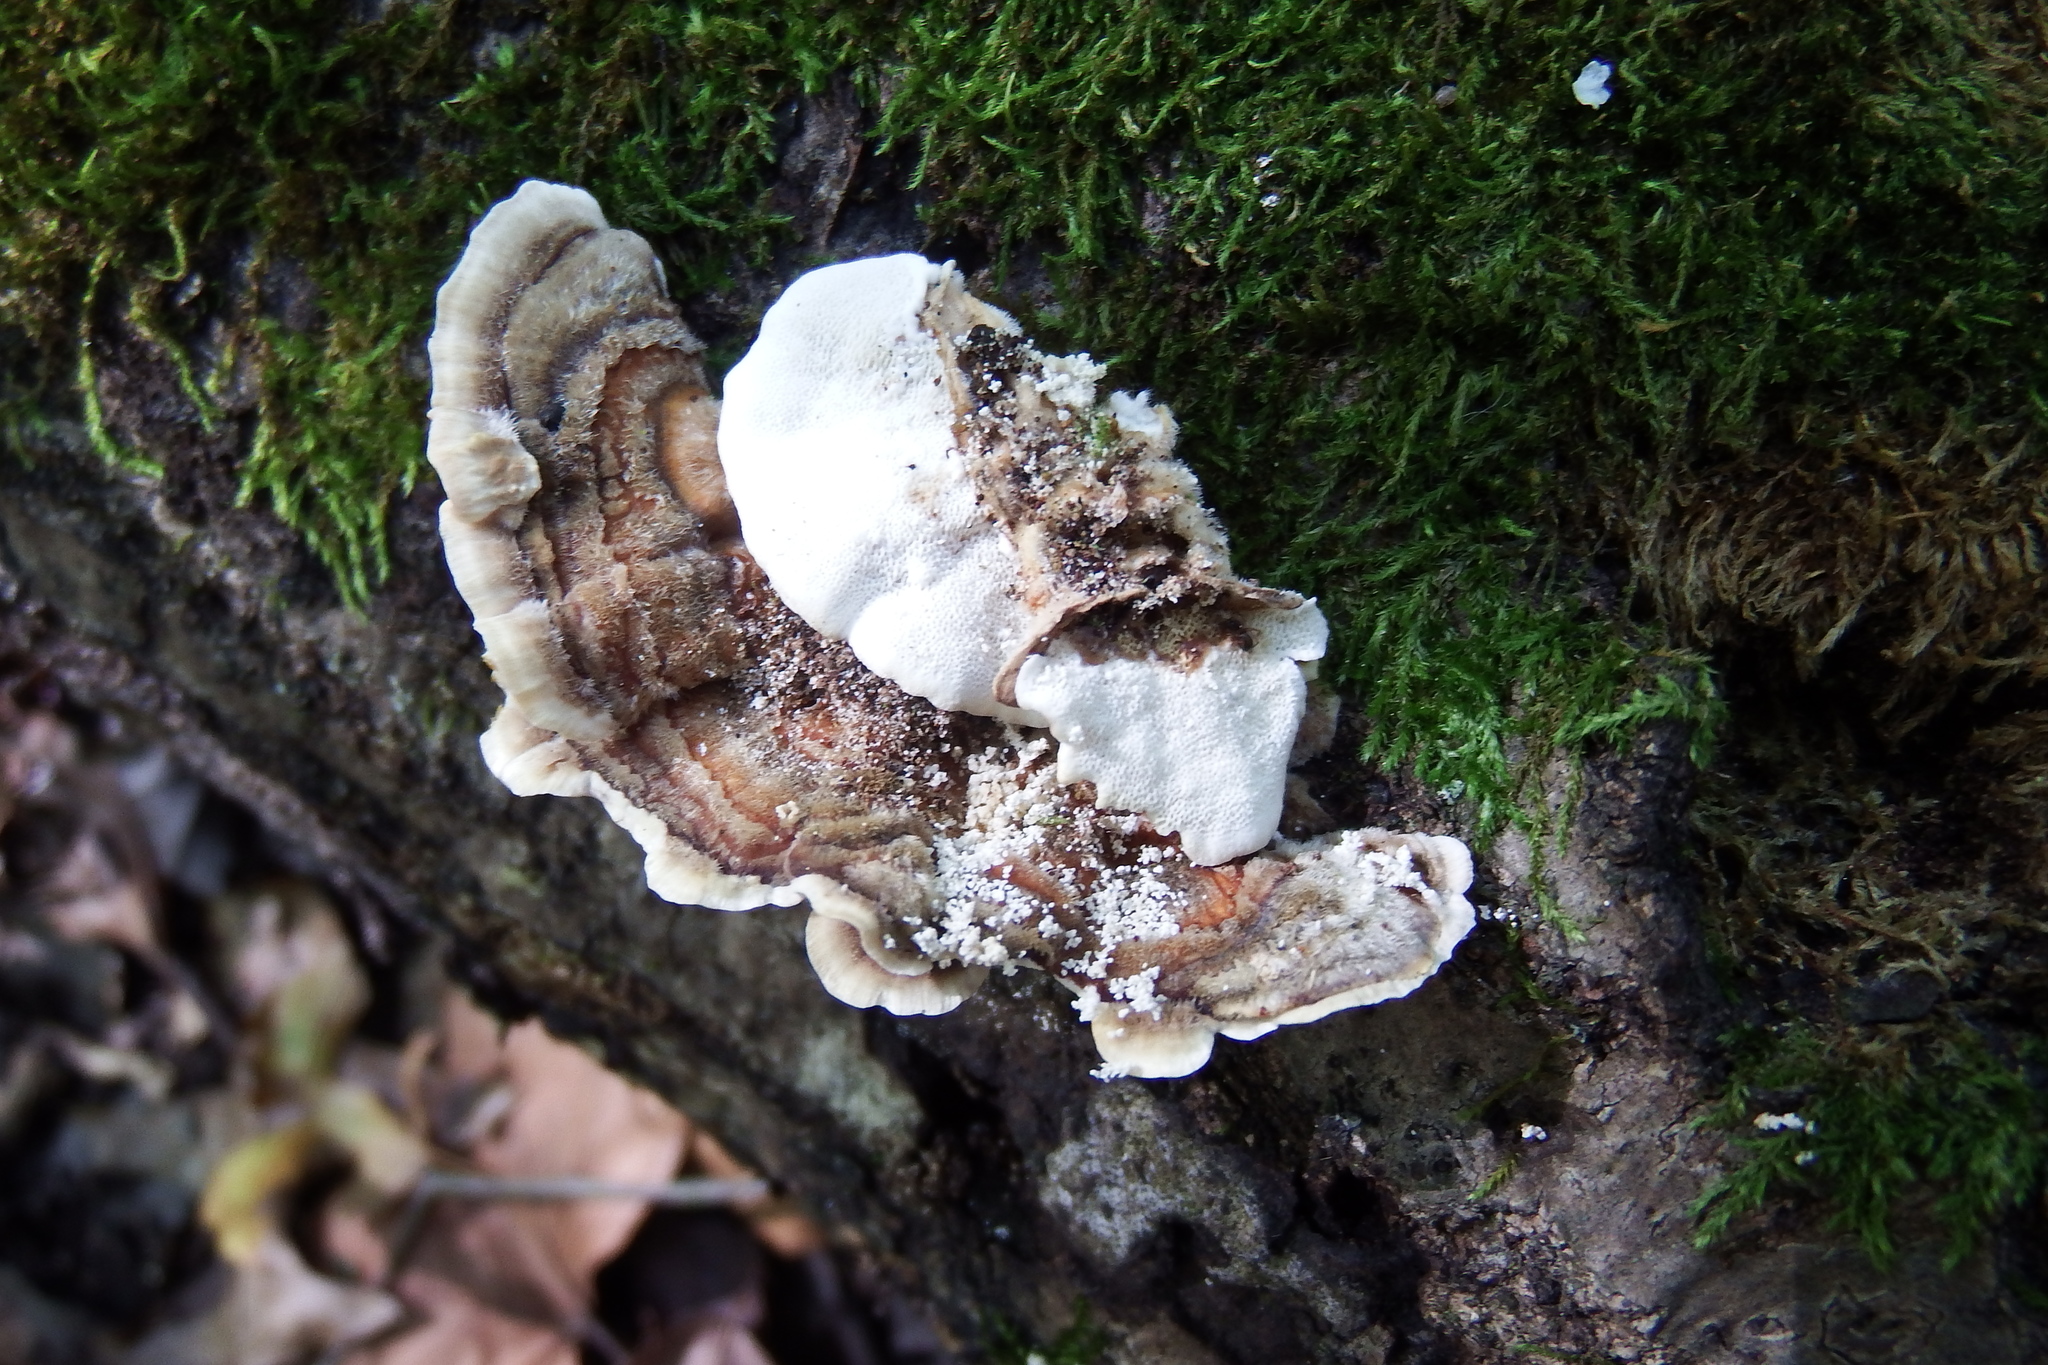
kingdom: Fungi
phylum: Basidiomycota
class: Agaricomycetes
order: Polyporales
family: Polyporaceae
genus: Trametes
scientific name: Trametes versicolor
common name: Turkeytail
